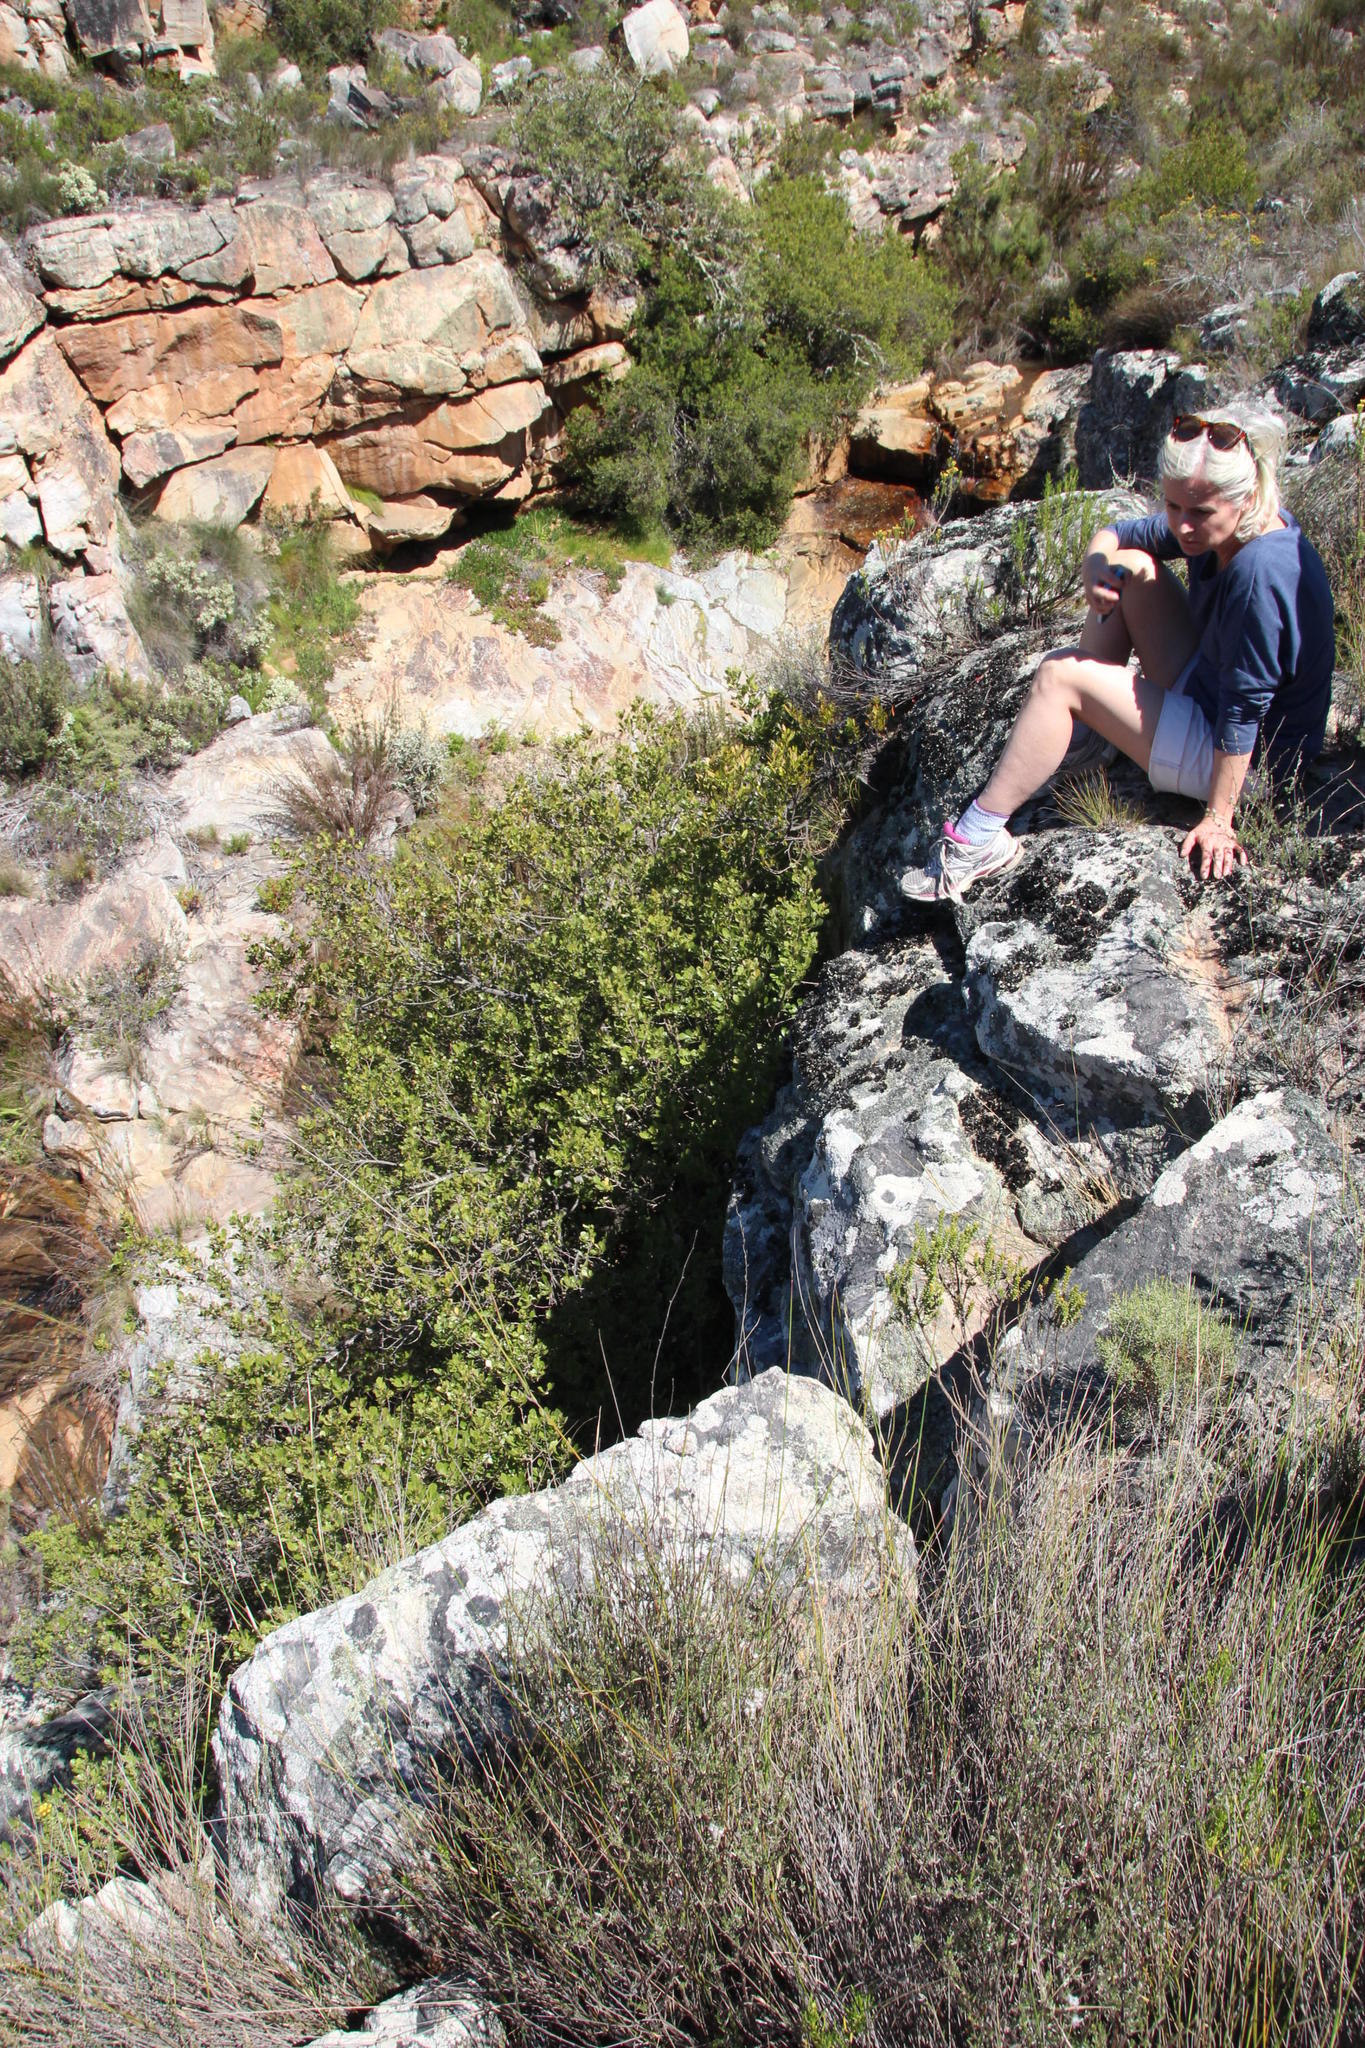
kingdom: Plantae
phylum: Tracheophyta
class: Magnoliopsida
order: Sapindales
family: Anacardiaceae
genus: Searsia
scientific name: Searsia lucida
